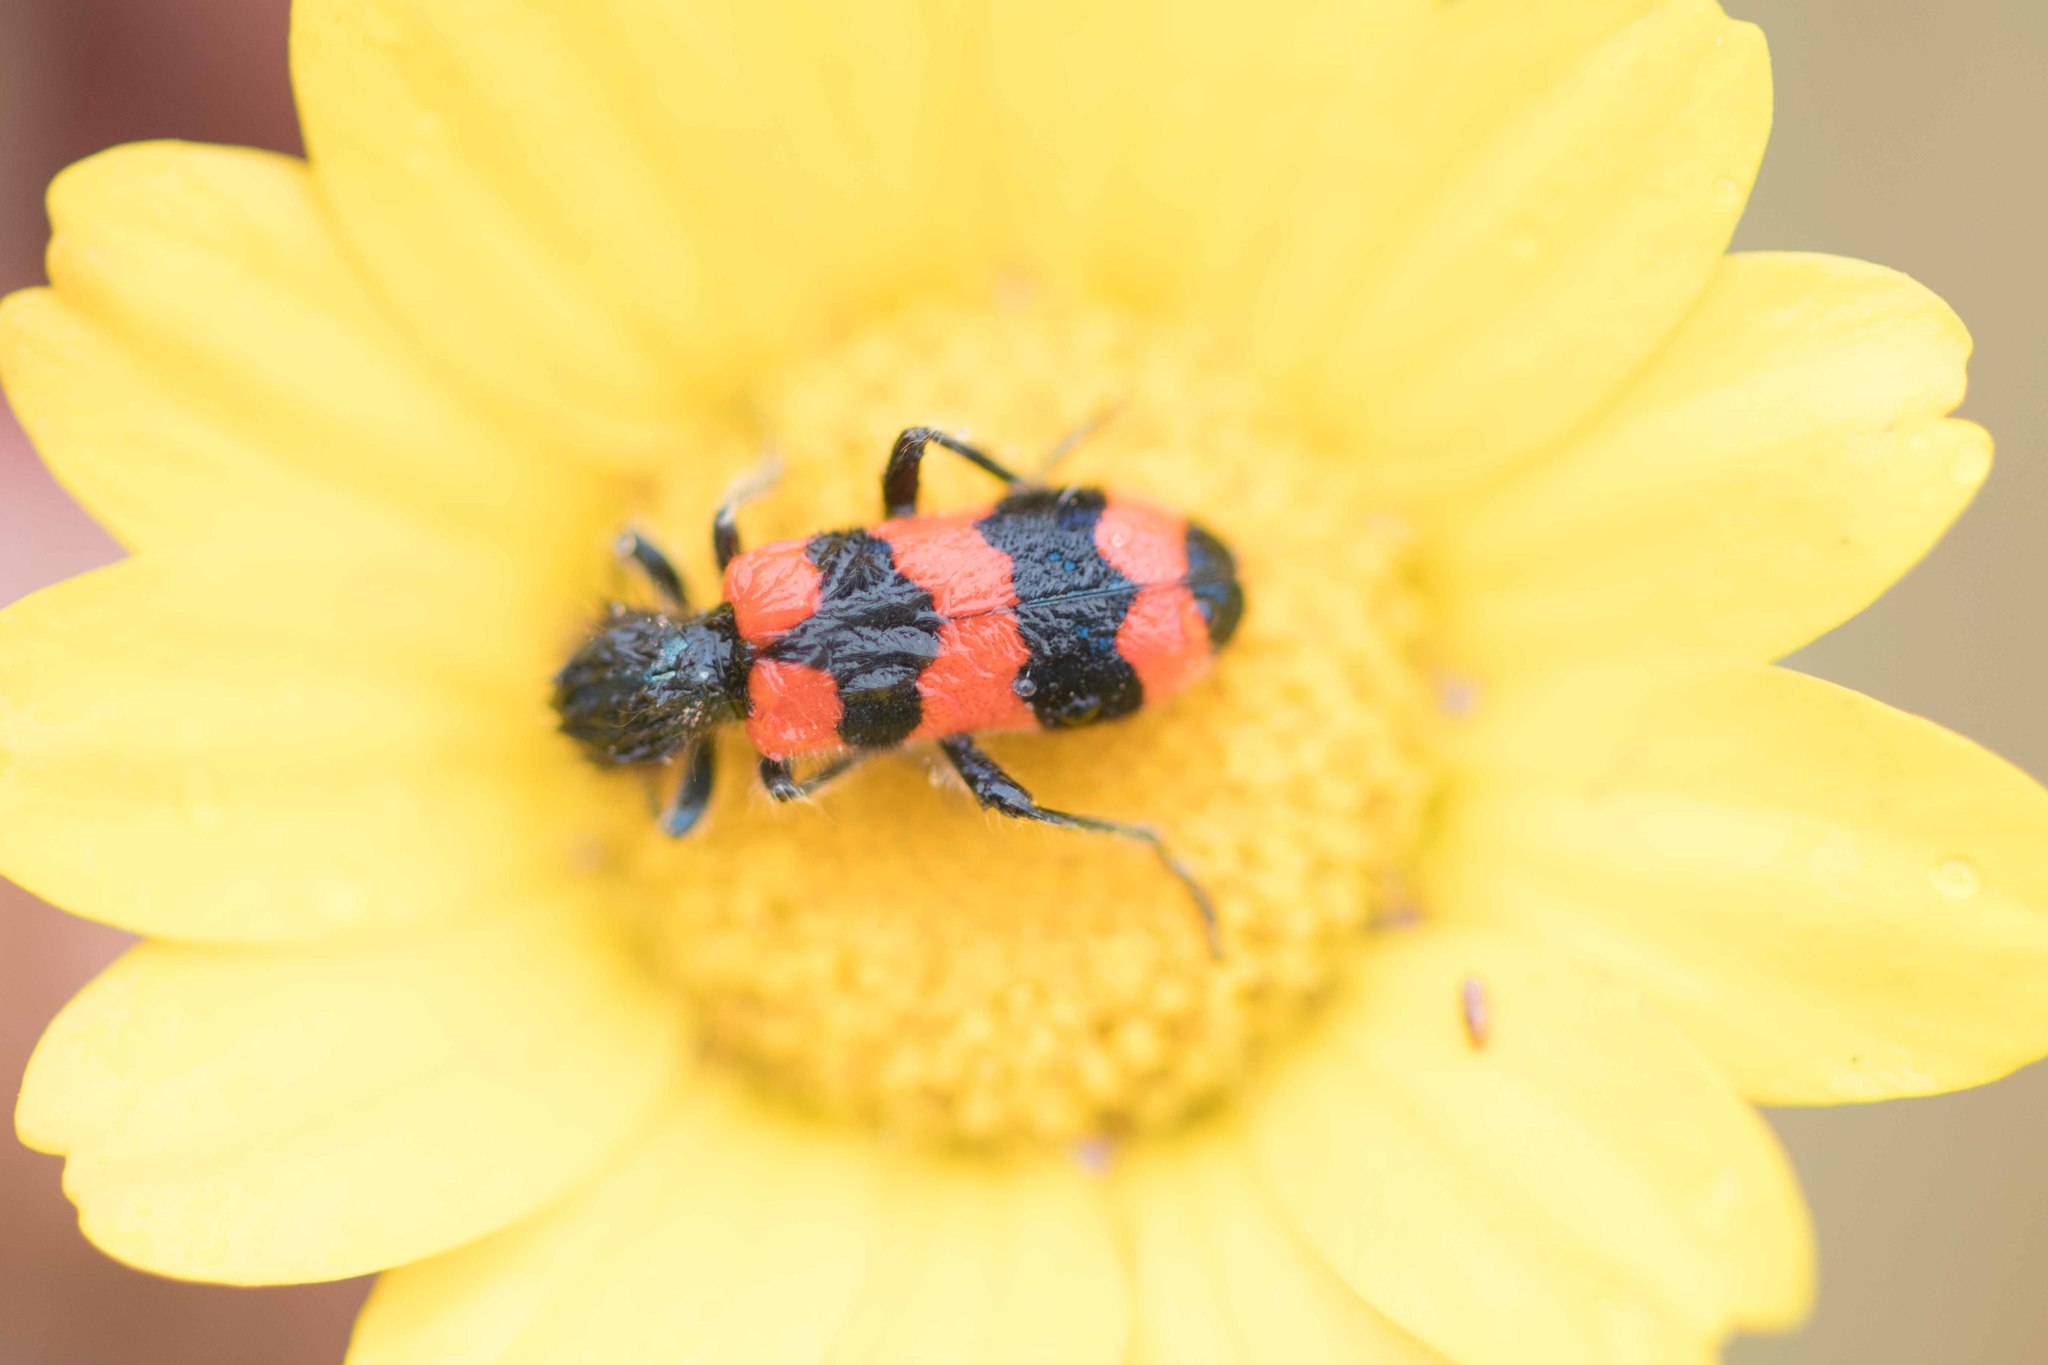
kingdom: Animalia
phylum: Arthropoda
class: Insecta
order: Coleoptera
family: Cleridae
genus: Trichodes
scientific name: Trichodes apiarius
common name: Bee-eating beetle
